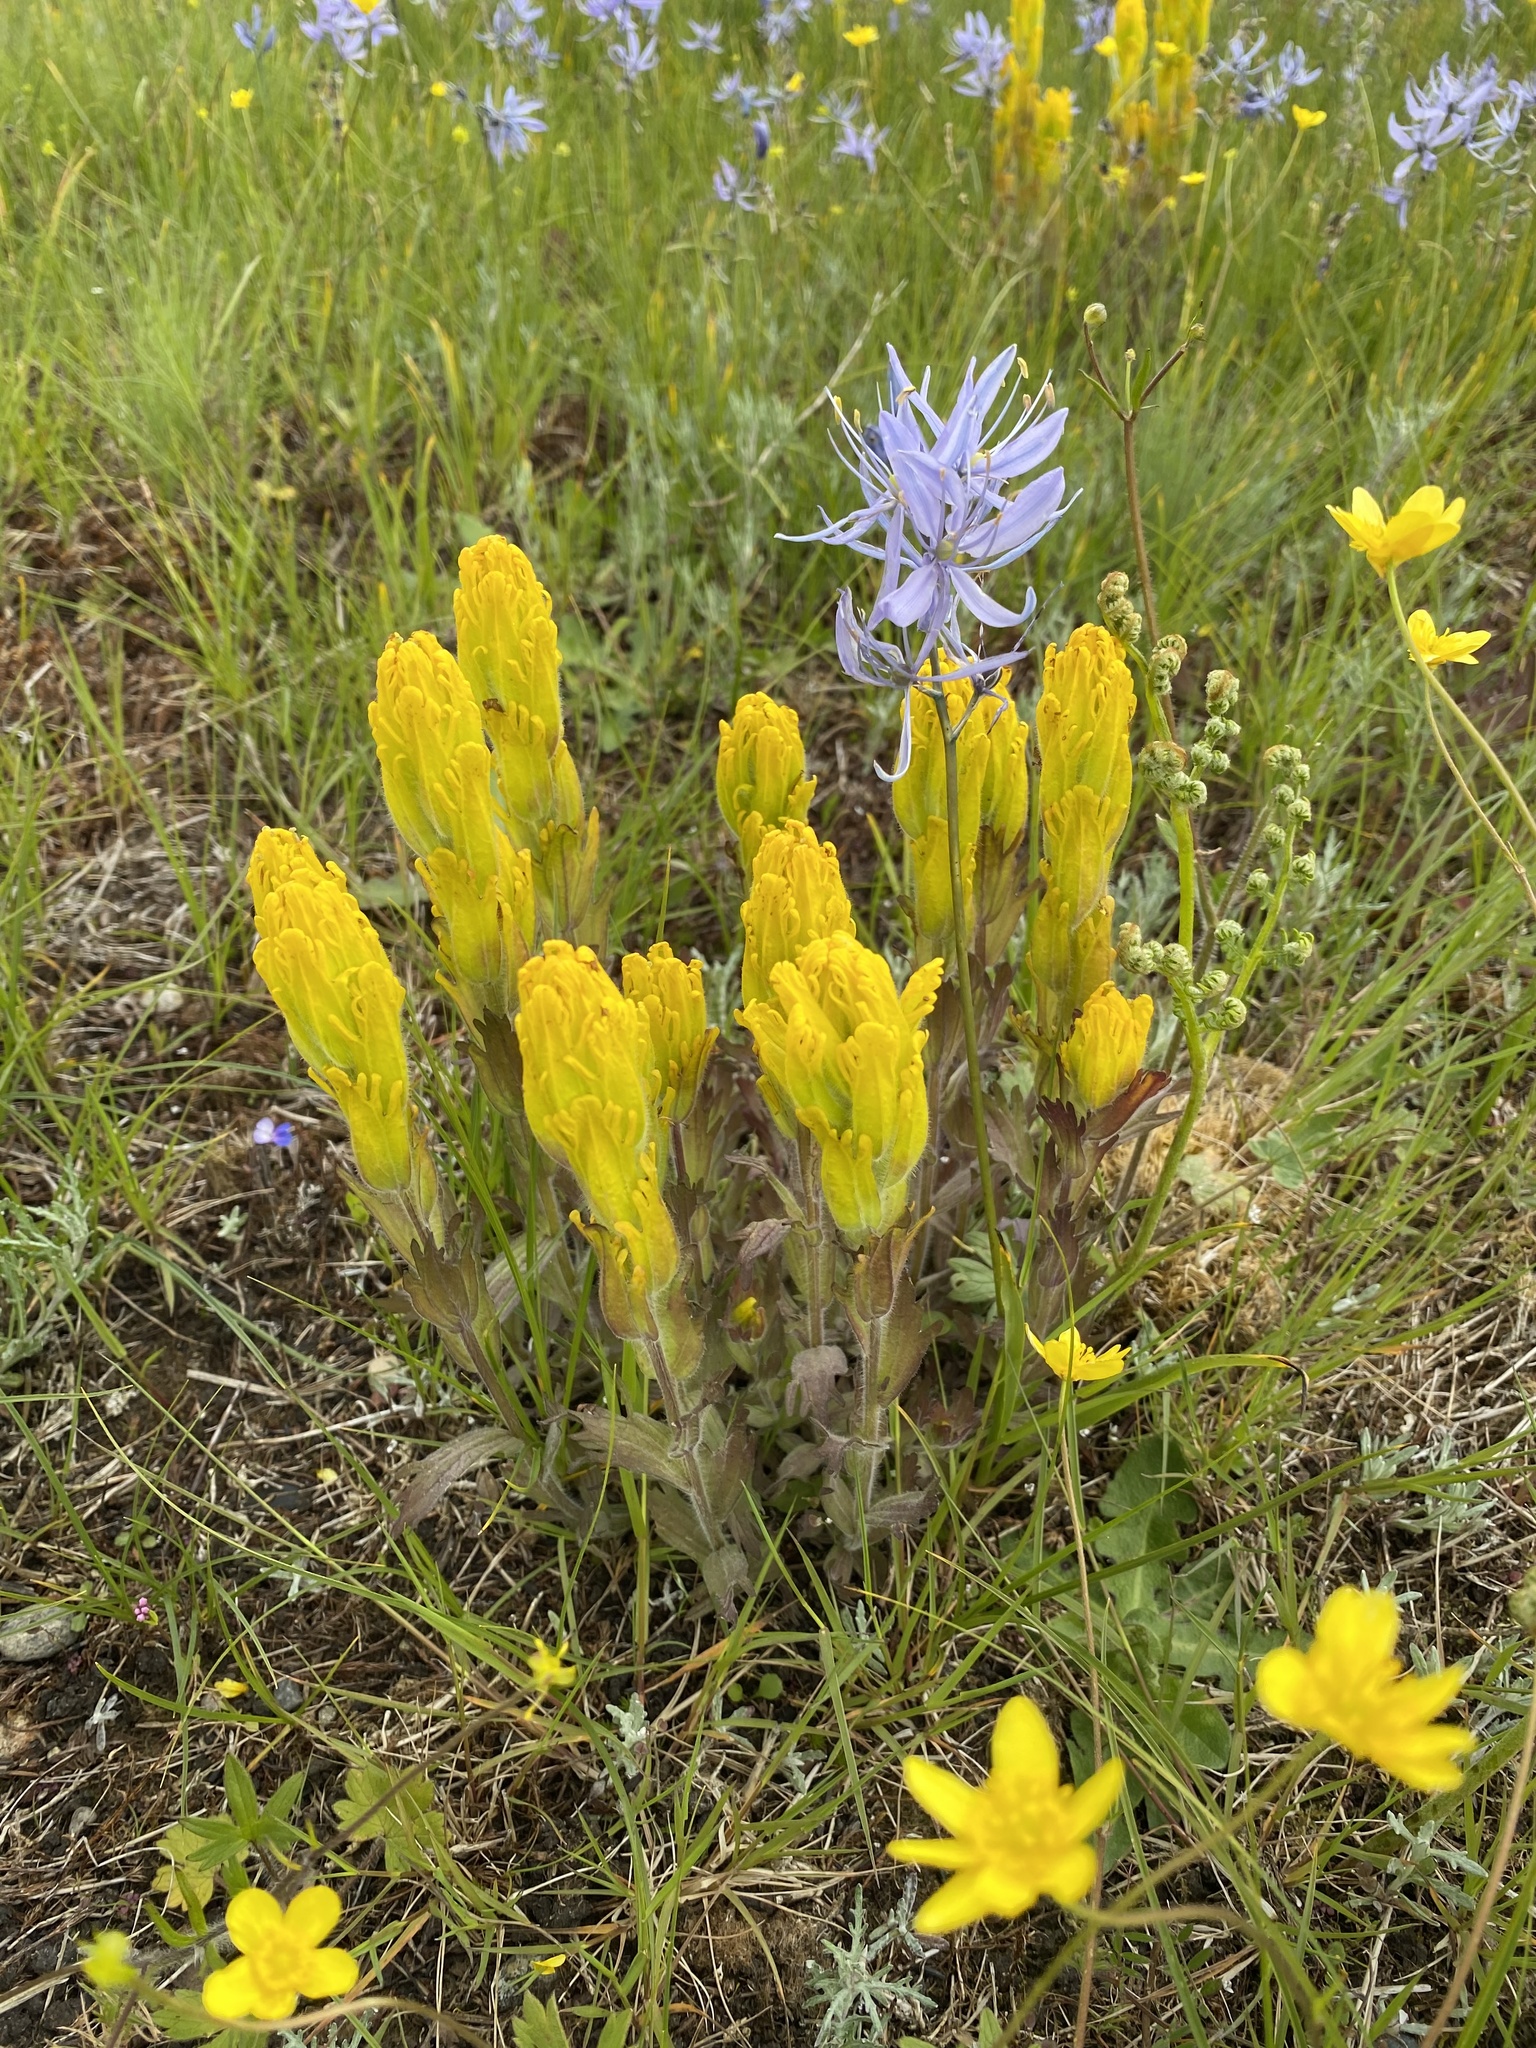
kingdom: Plantae
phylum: Tracheophyta
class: Magnoliopsida
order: Lamiales
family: Orobanchaceae
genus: Castilleja
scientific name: Castilleja levisecta
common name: Golden paintbrush
